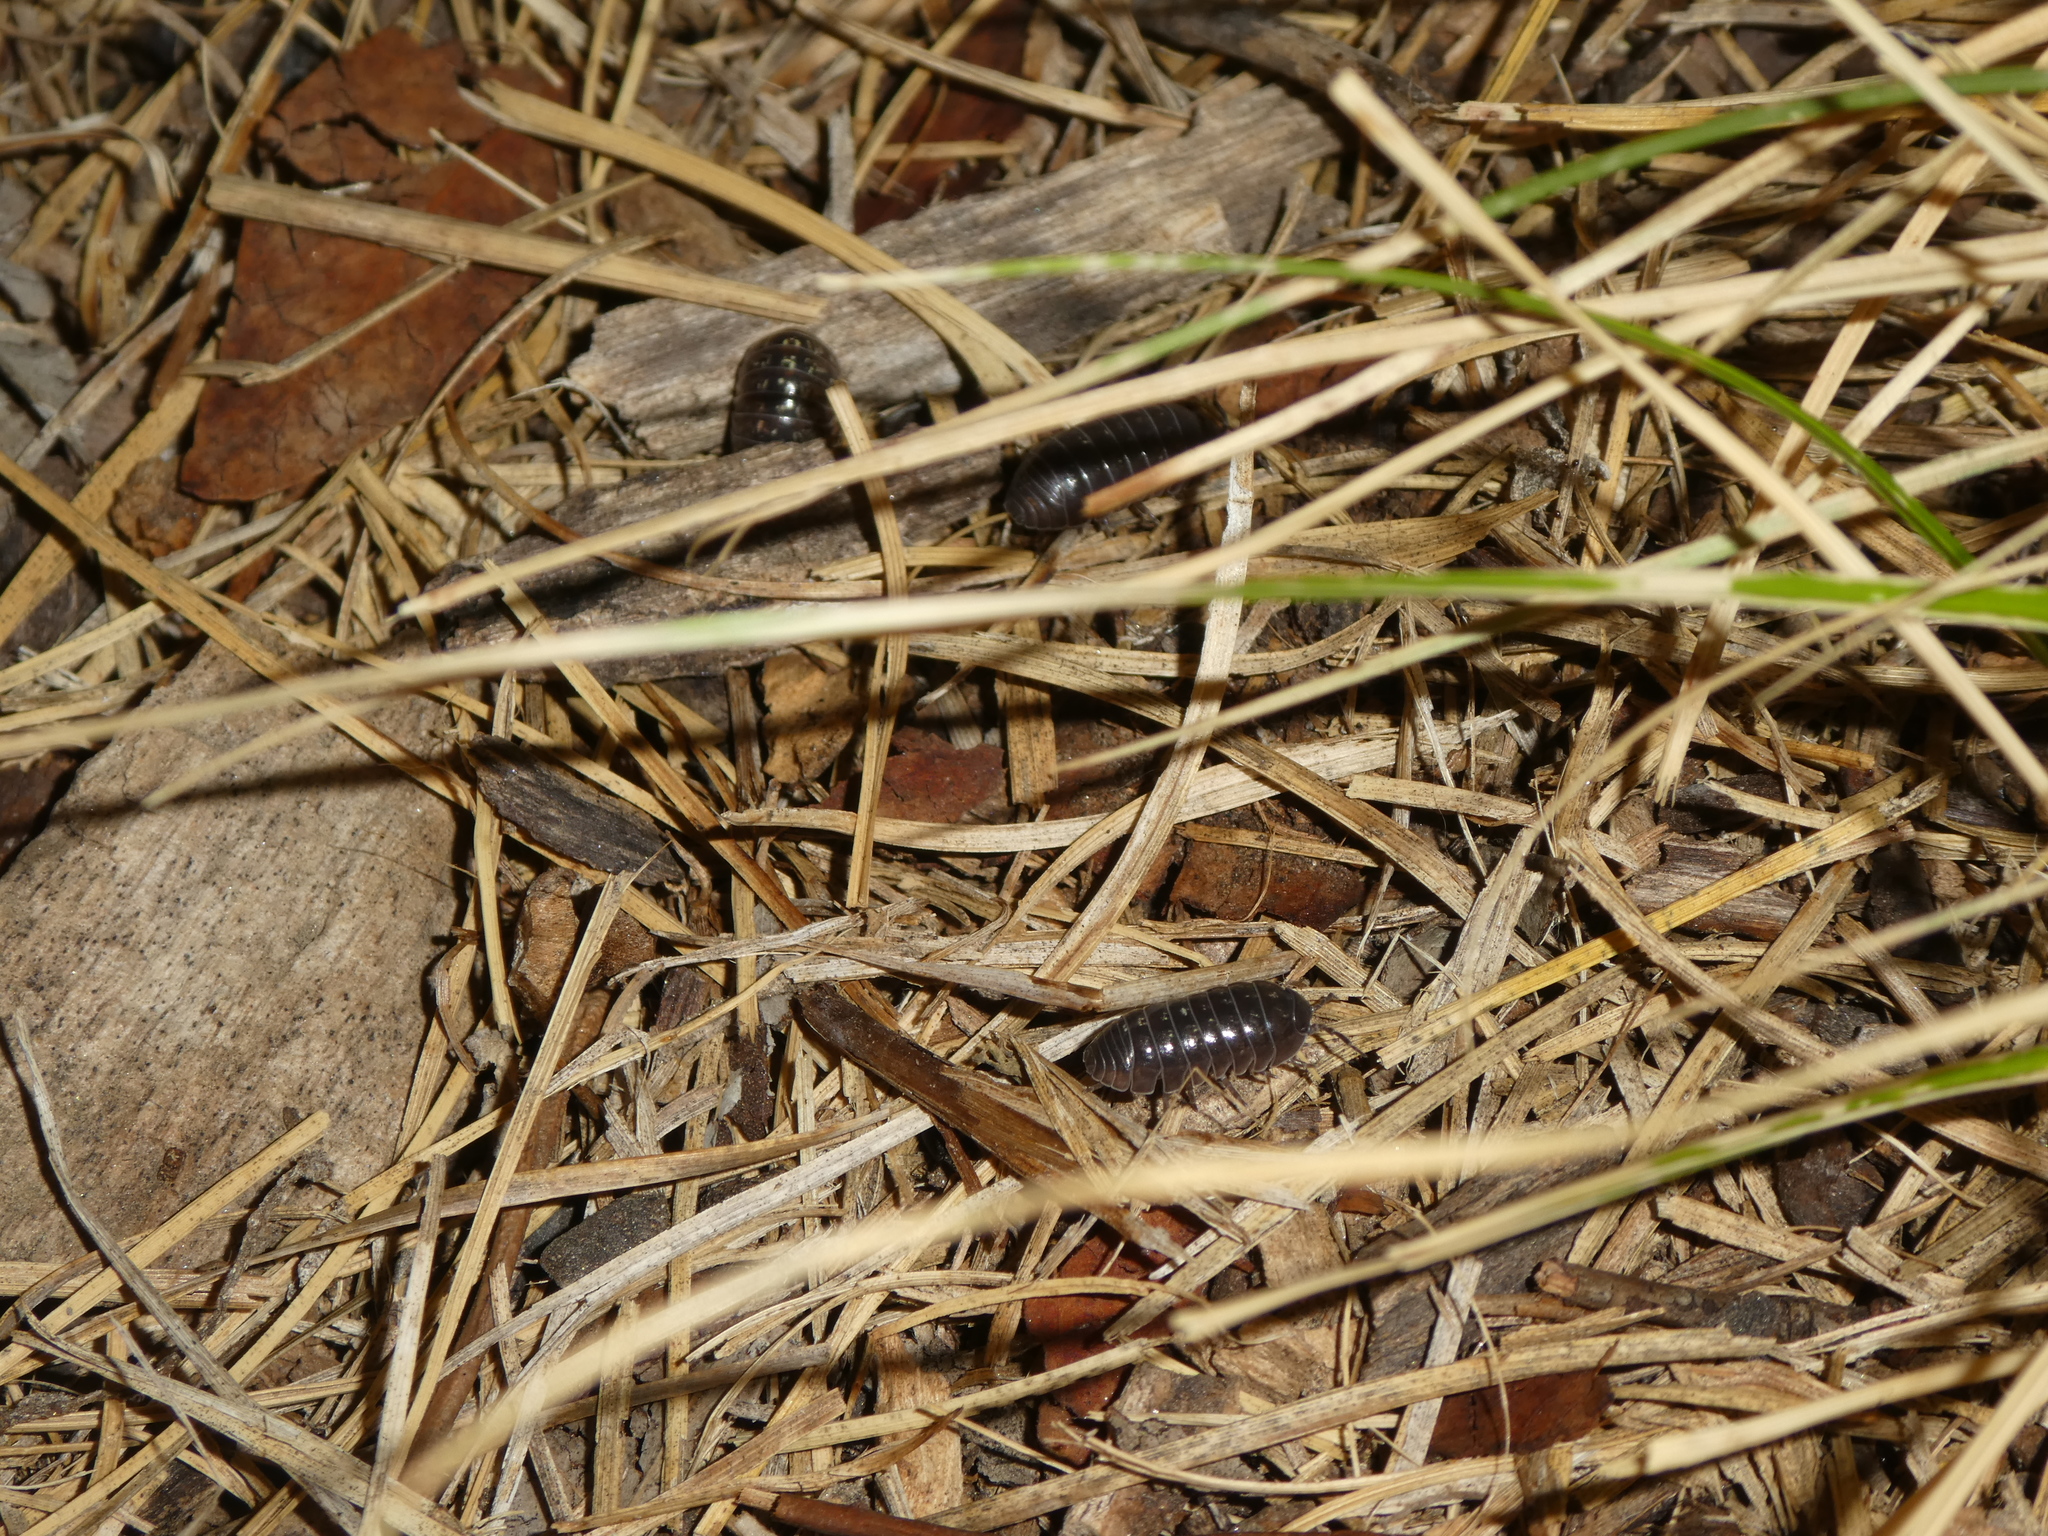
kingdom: Animalia
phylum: Arthropoda
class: Malacostraca
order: Isopoda
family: Armadillidiidae
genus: Armadillidium
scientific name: Armadillidium vulgare
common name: Common pill woodlouse
